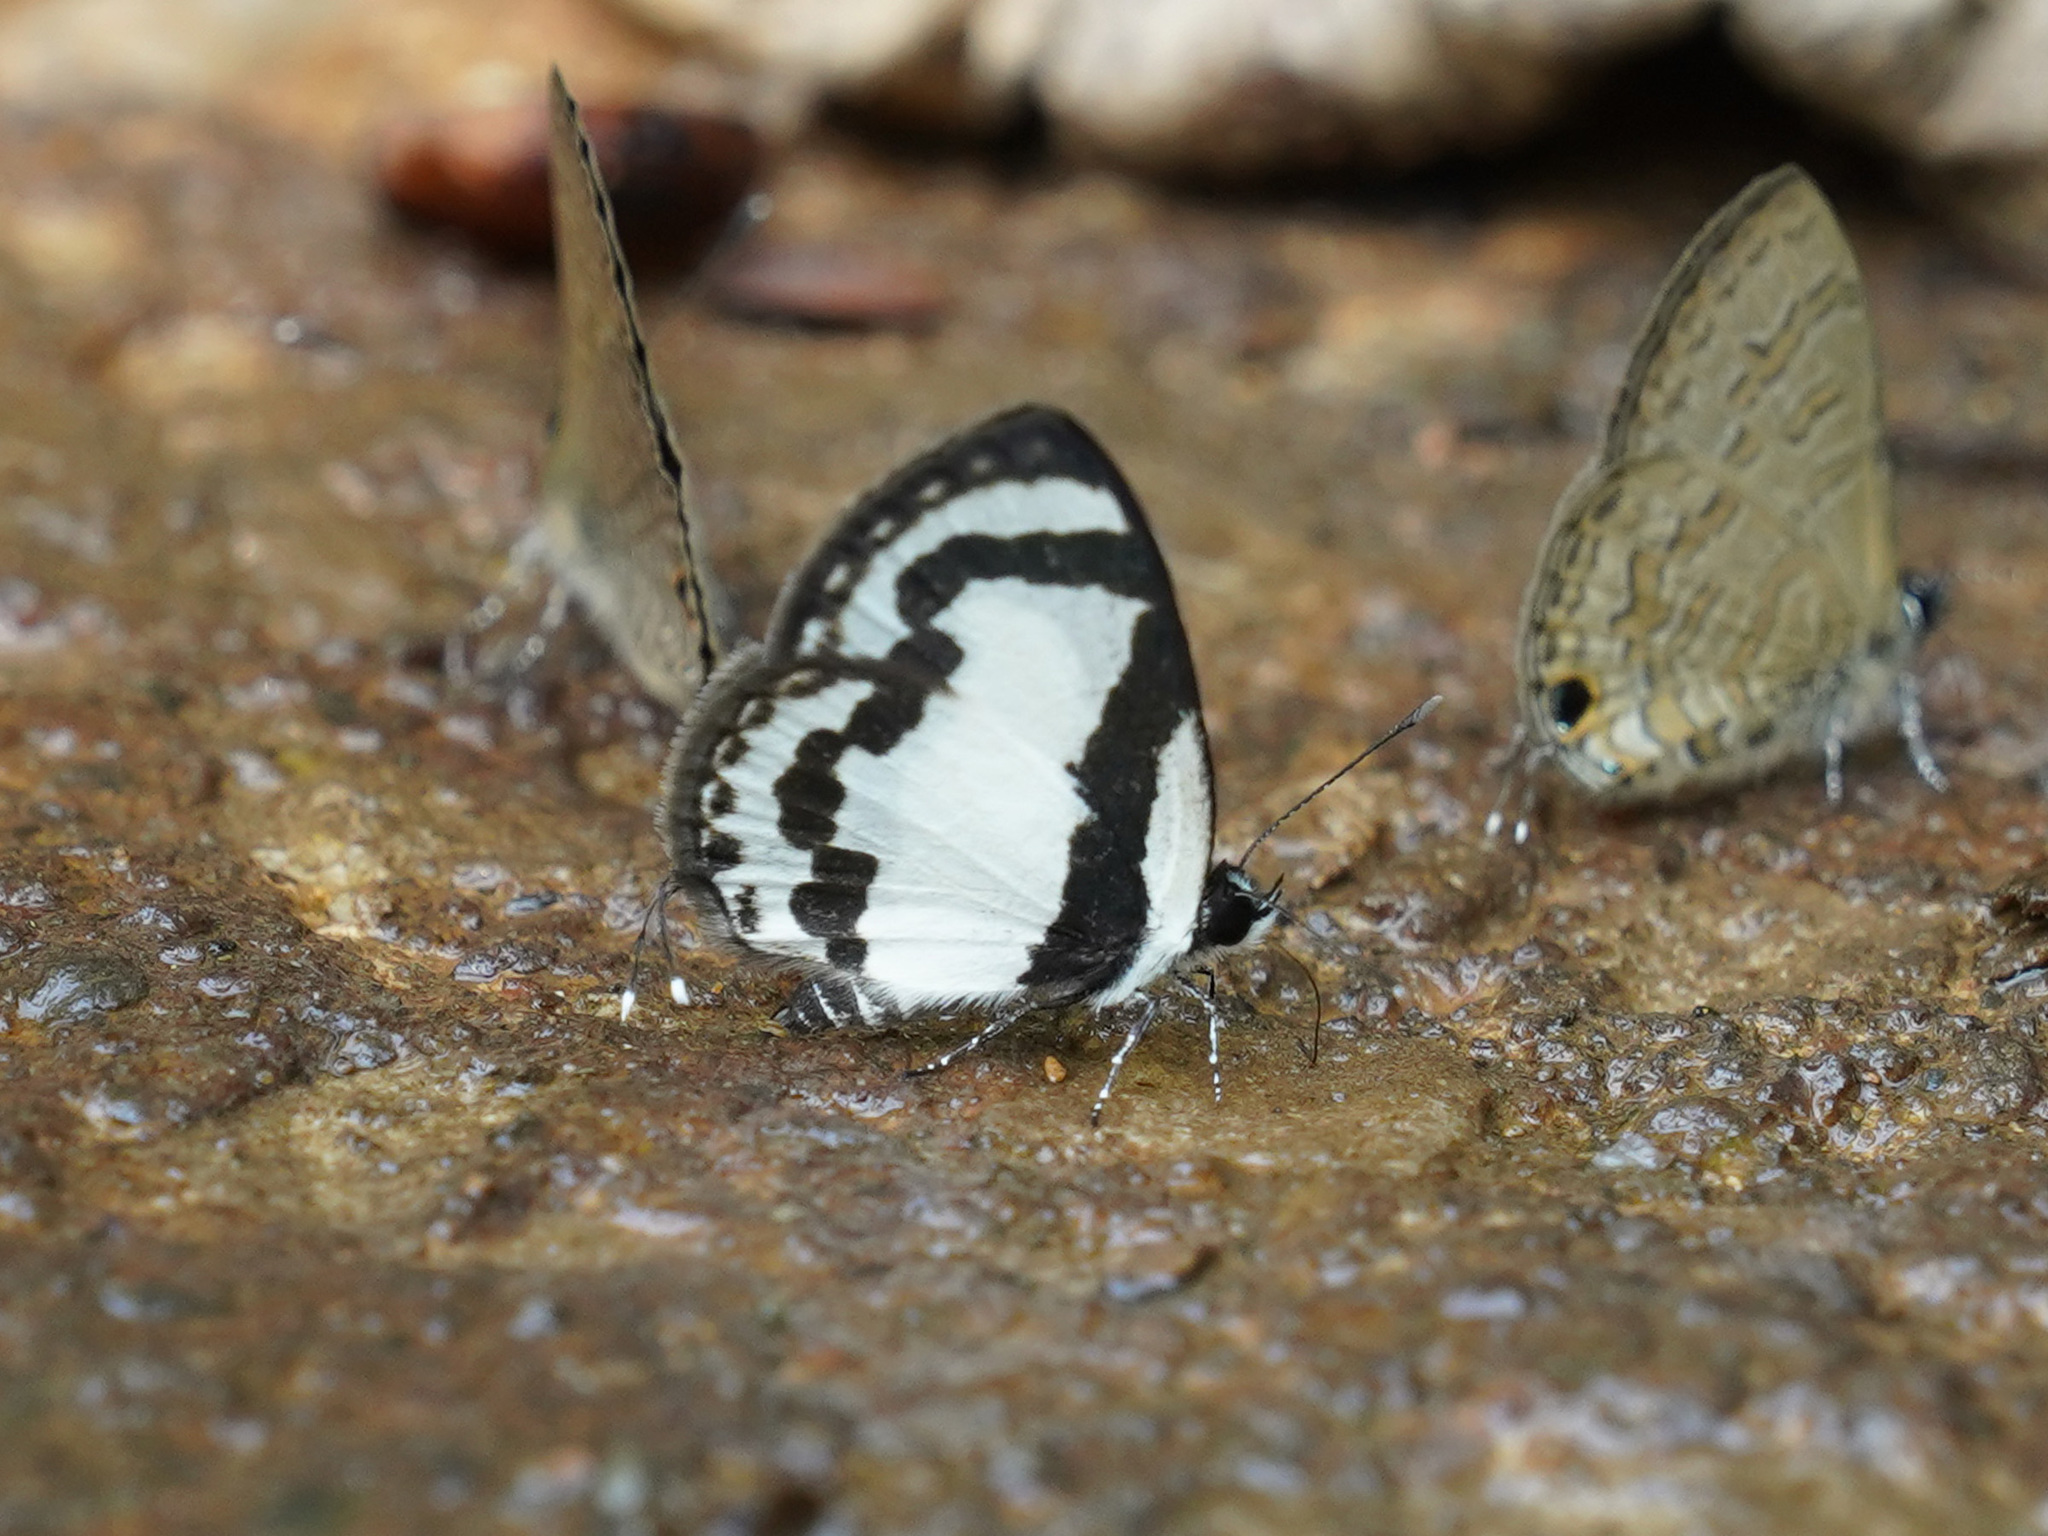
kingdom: Animalia
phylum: Arthropoda
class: Insecta
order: Lepidoptera
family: Lycaenidae
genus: Caleta
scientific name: Caleta roxus
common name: Straight pierrot
